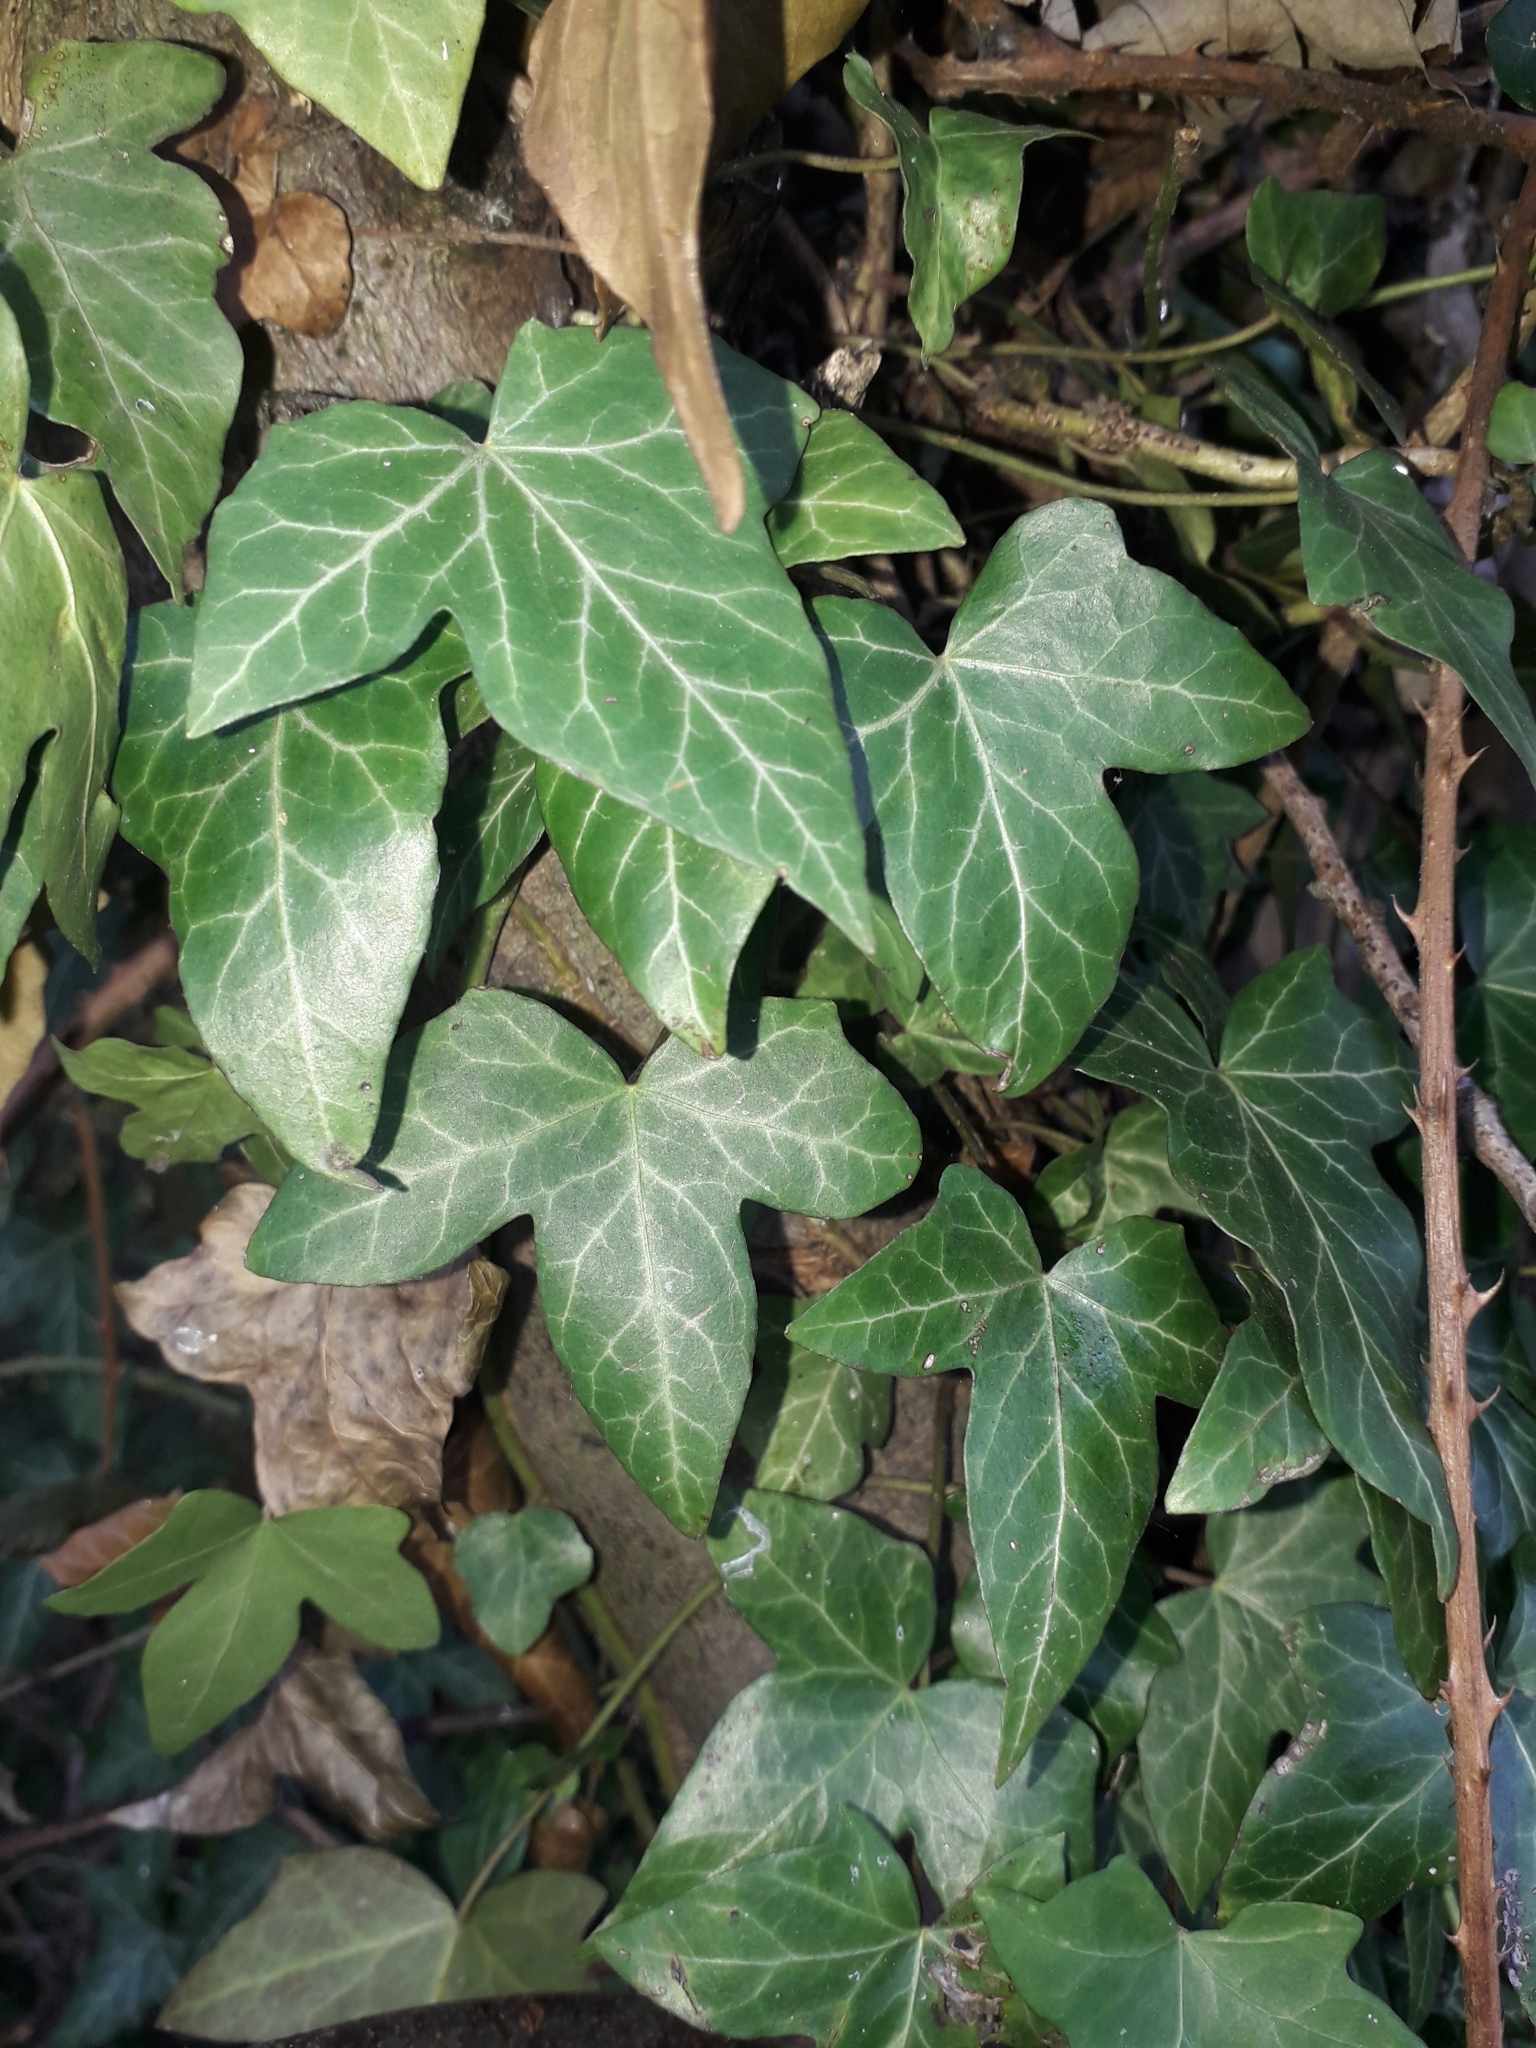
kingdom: Plantae
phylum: Tracheophyta
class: Magnoliopsida
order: Apiales
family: Araliaceae
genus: Hedera
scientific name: Hedera helix
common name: Ivy
